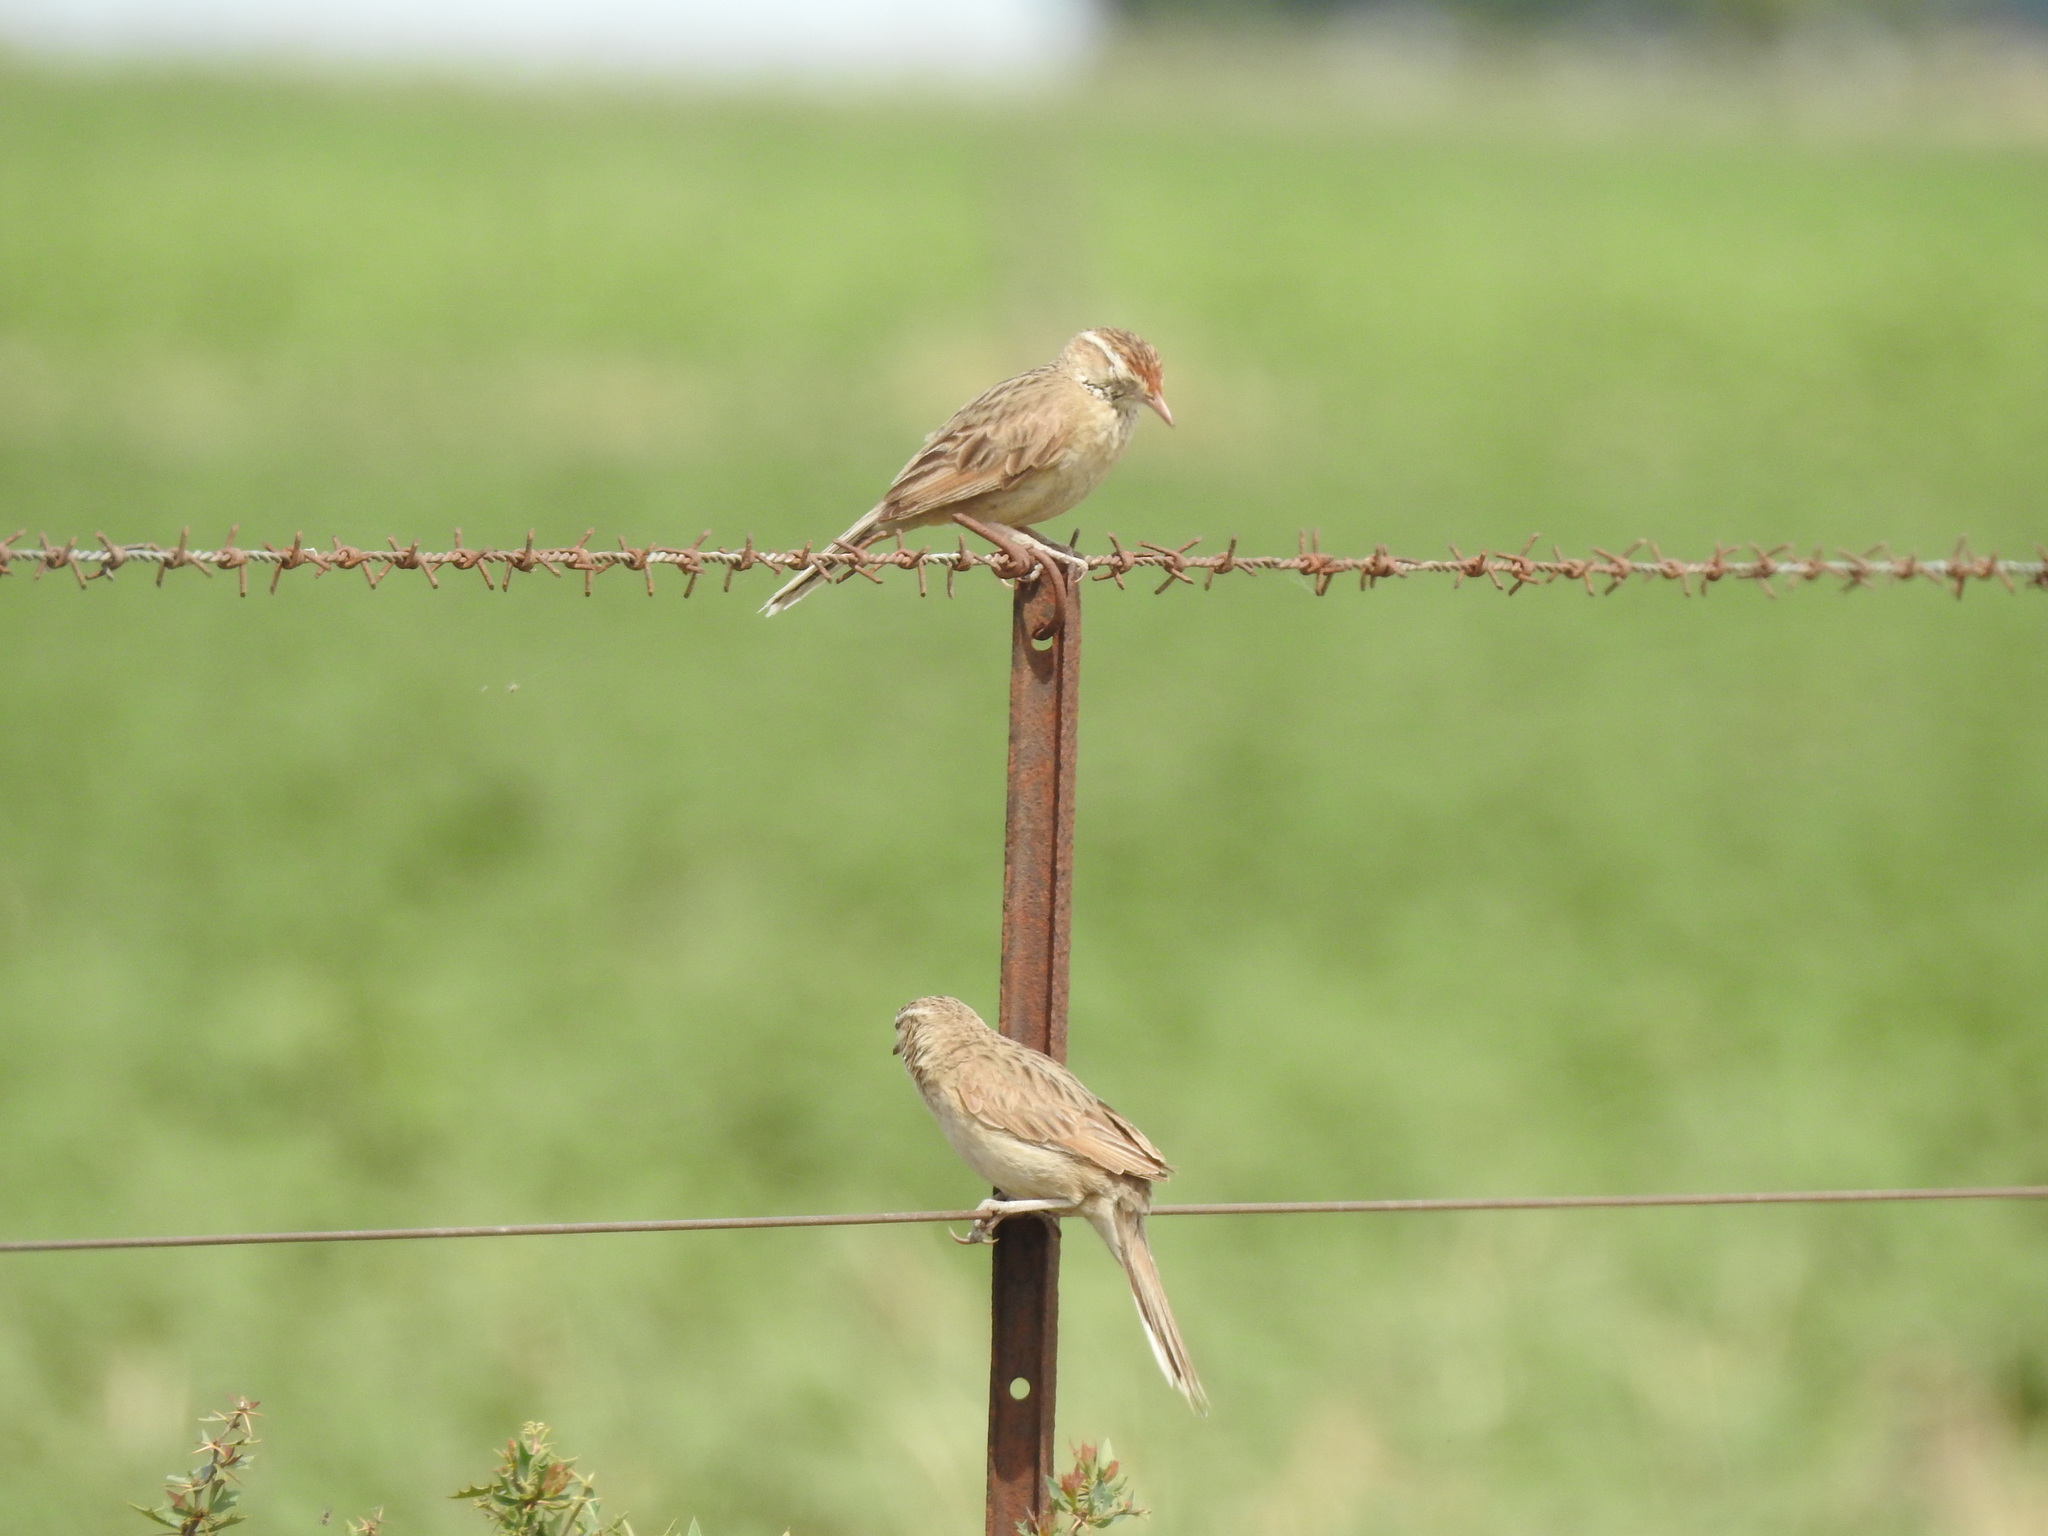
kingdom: Animalia
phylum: Chordata
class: Aves
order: Passeriformes
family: Furnariidae
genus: Anumbius
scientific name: Anumbius annumbi
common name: Firewood-gatherer
